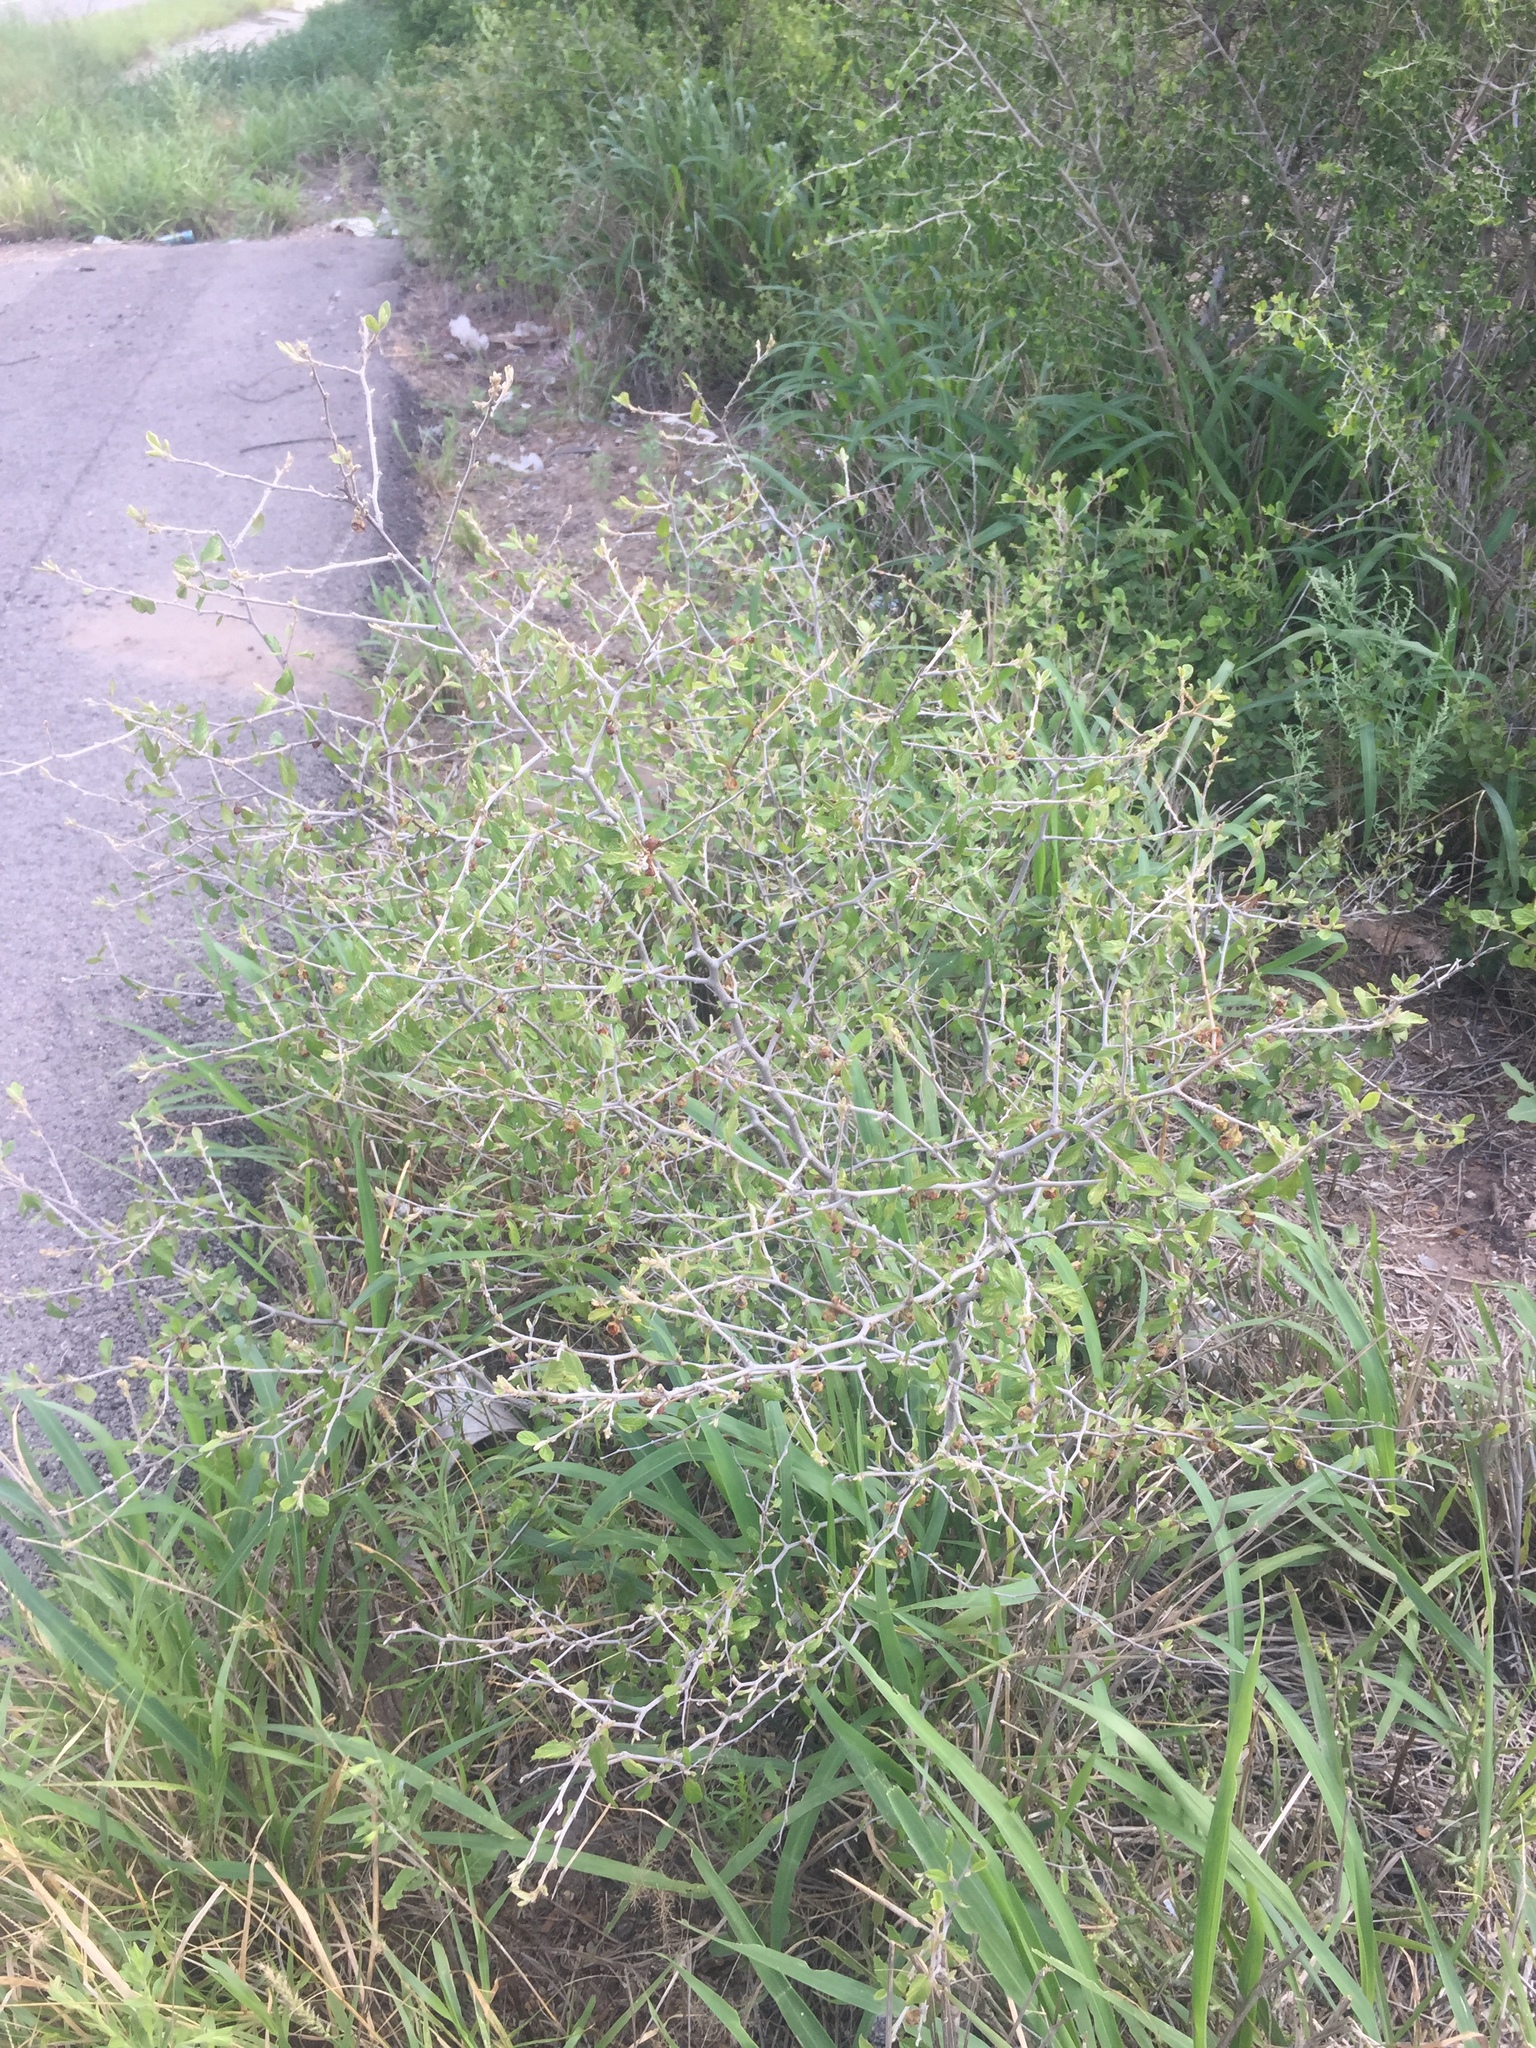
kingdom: Plantae
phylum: Tracheophyta
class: Magnoliopsida
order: Rosales
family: Rhamnaceae
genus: Colubrina
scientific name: Colubrina texensis
